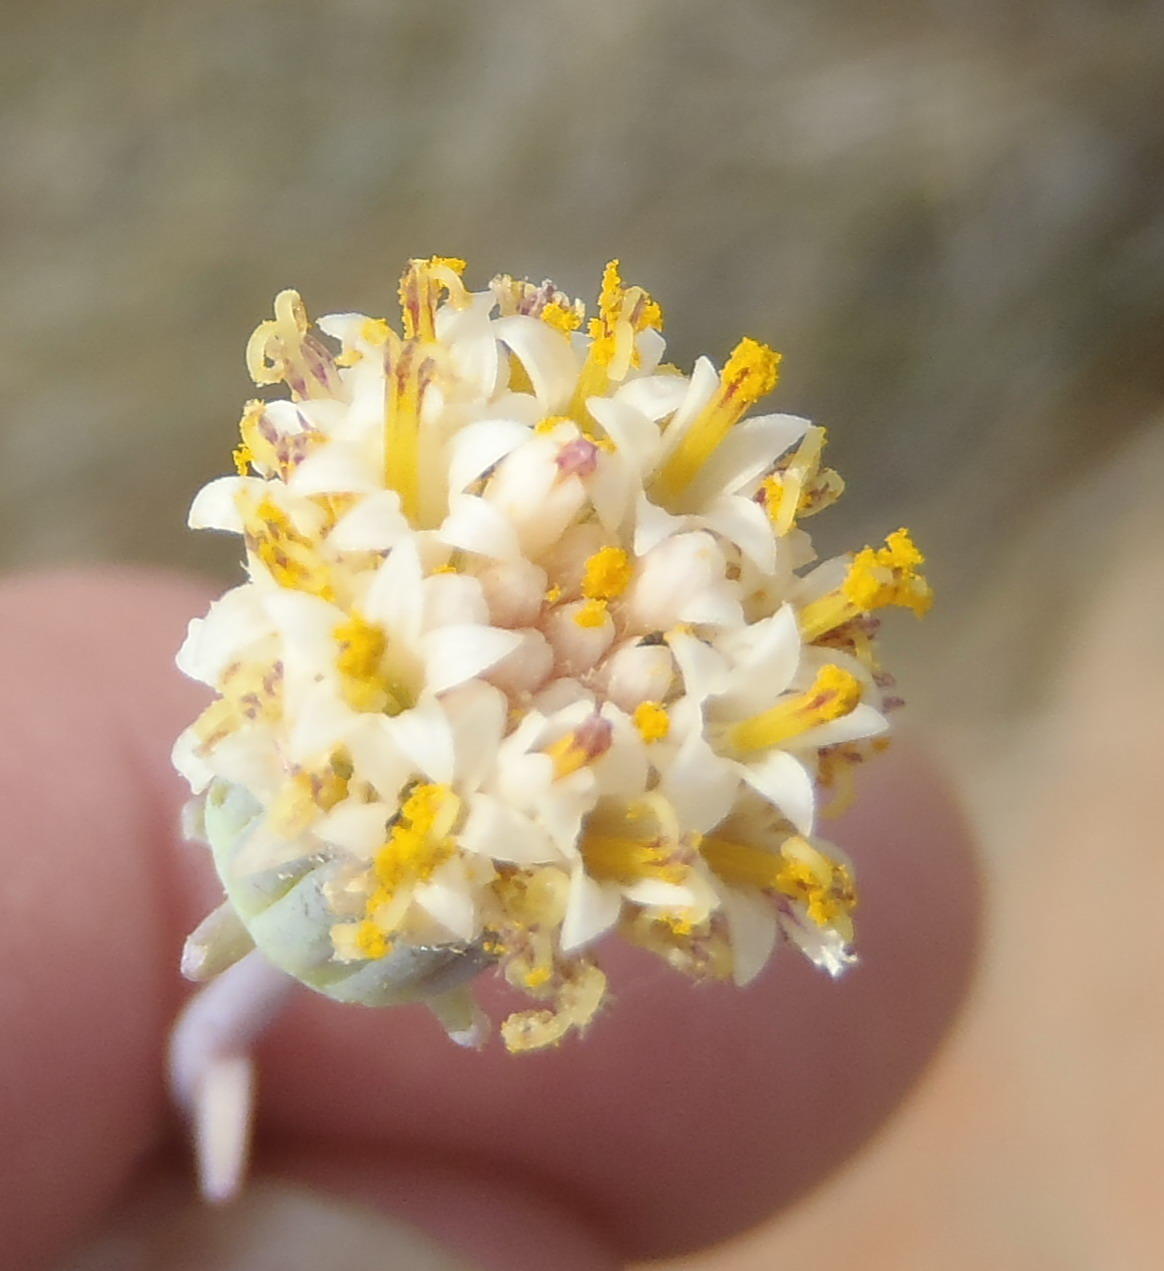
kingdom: Plantae
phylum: Tracheophyta
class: Magnoliopsida
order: Asterales
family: Asteraceae
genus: Curio
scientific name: Curio talinoides
